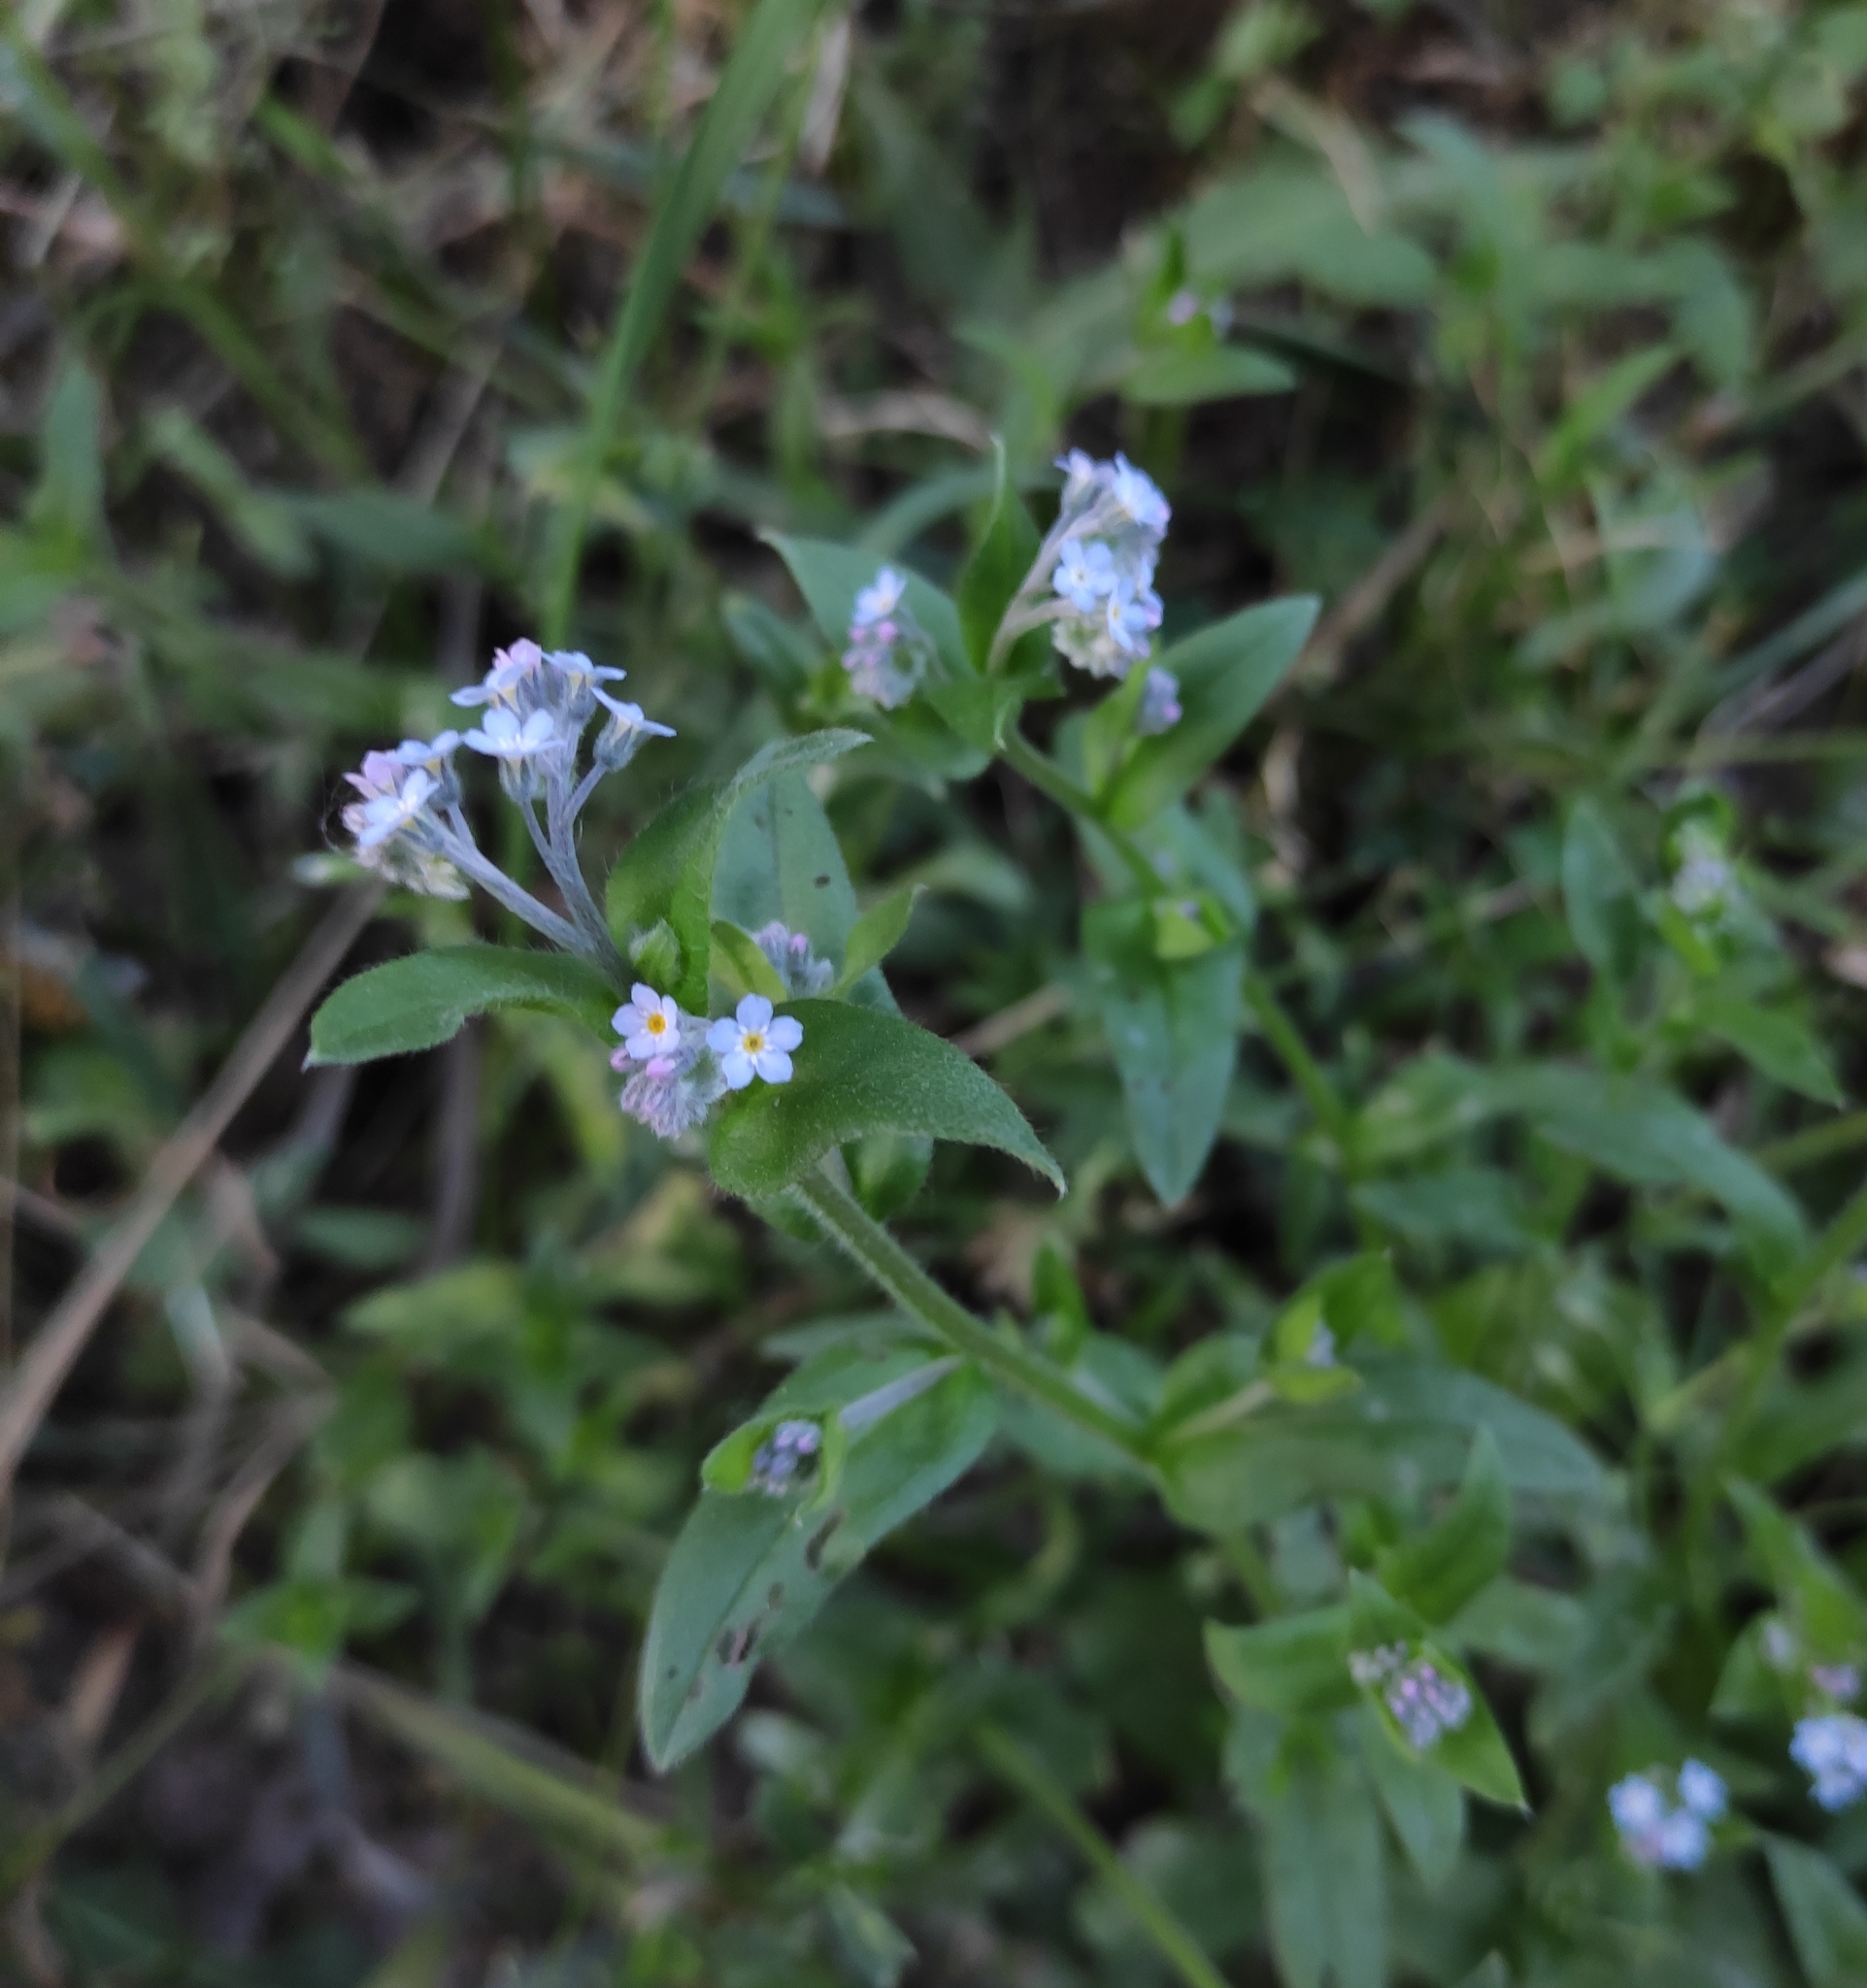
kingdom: Plantae
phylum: Tracheophyta
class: Magnoliopsida
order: Boraginales
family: Boraginaceae
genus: Myosotis
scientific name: Myosotis arvensis
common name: Field forget-me-not
